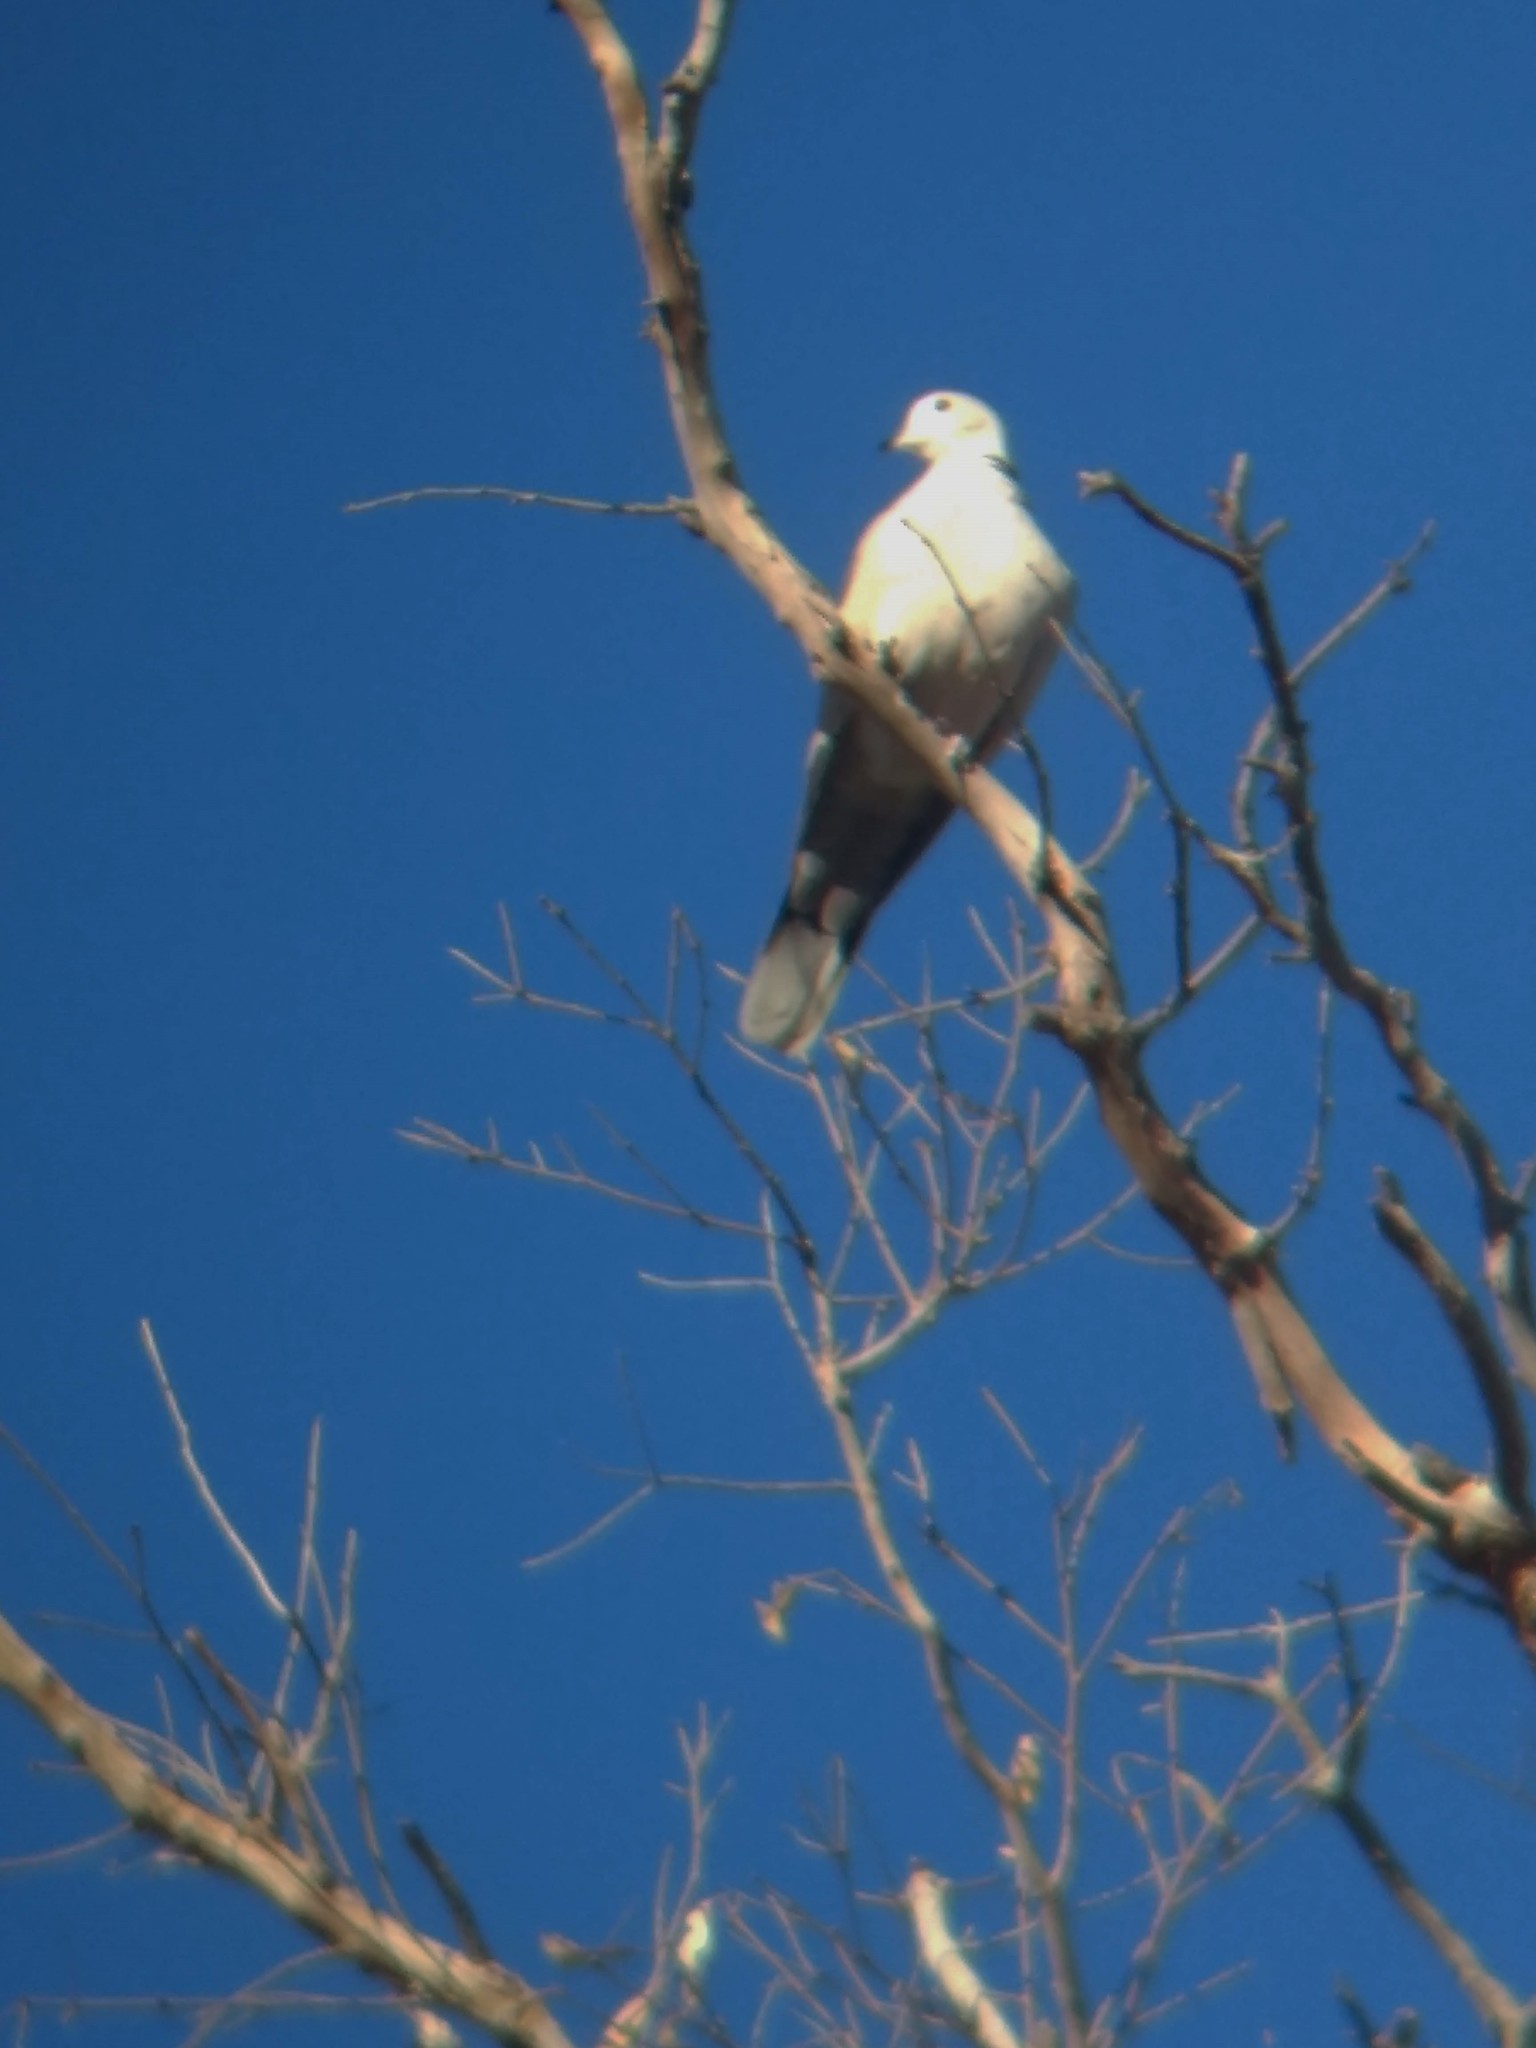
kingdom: Animalia
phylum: Chordata
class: Aves
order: Columbiformes
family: Columbidae
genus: Streptopelia
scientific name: Streptopelia decaocto
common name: Eurasian collared dove
